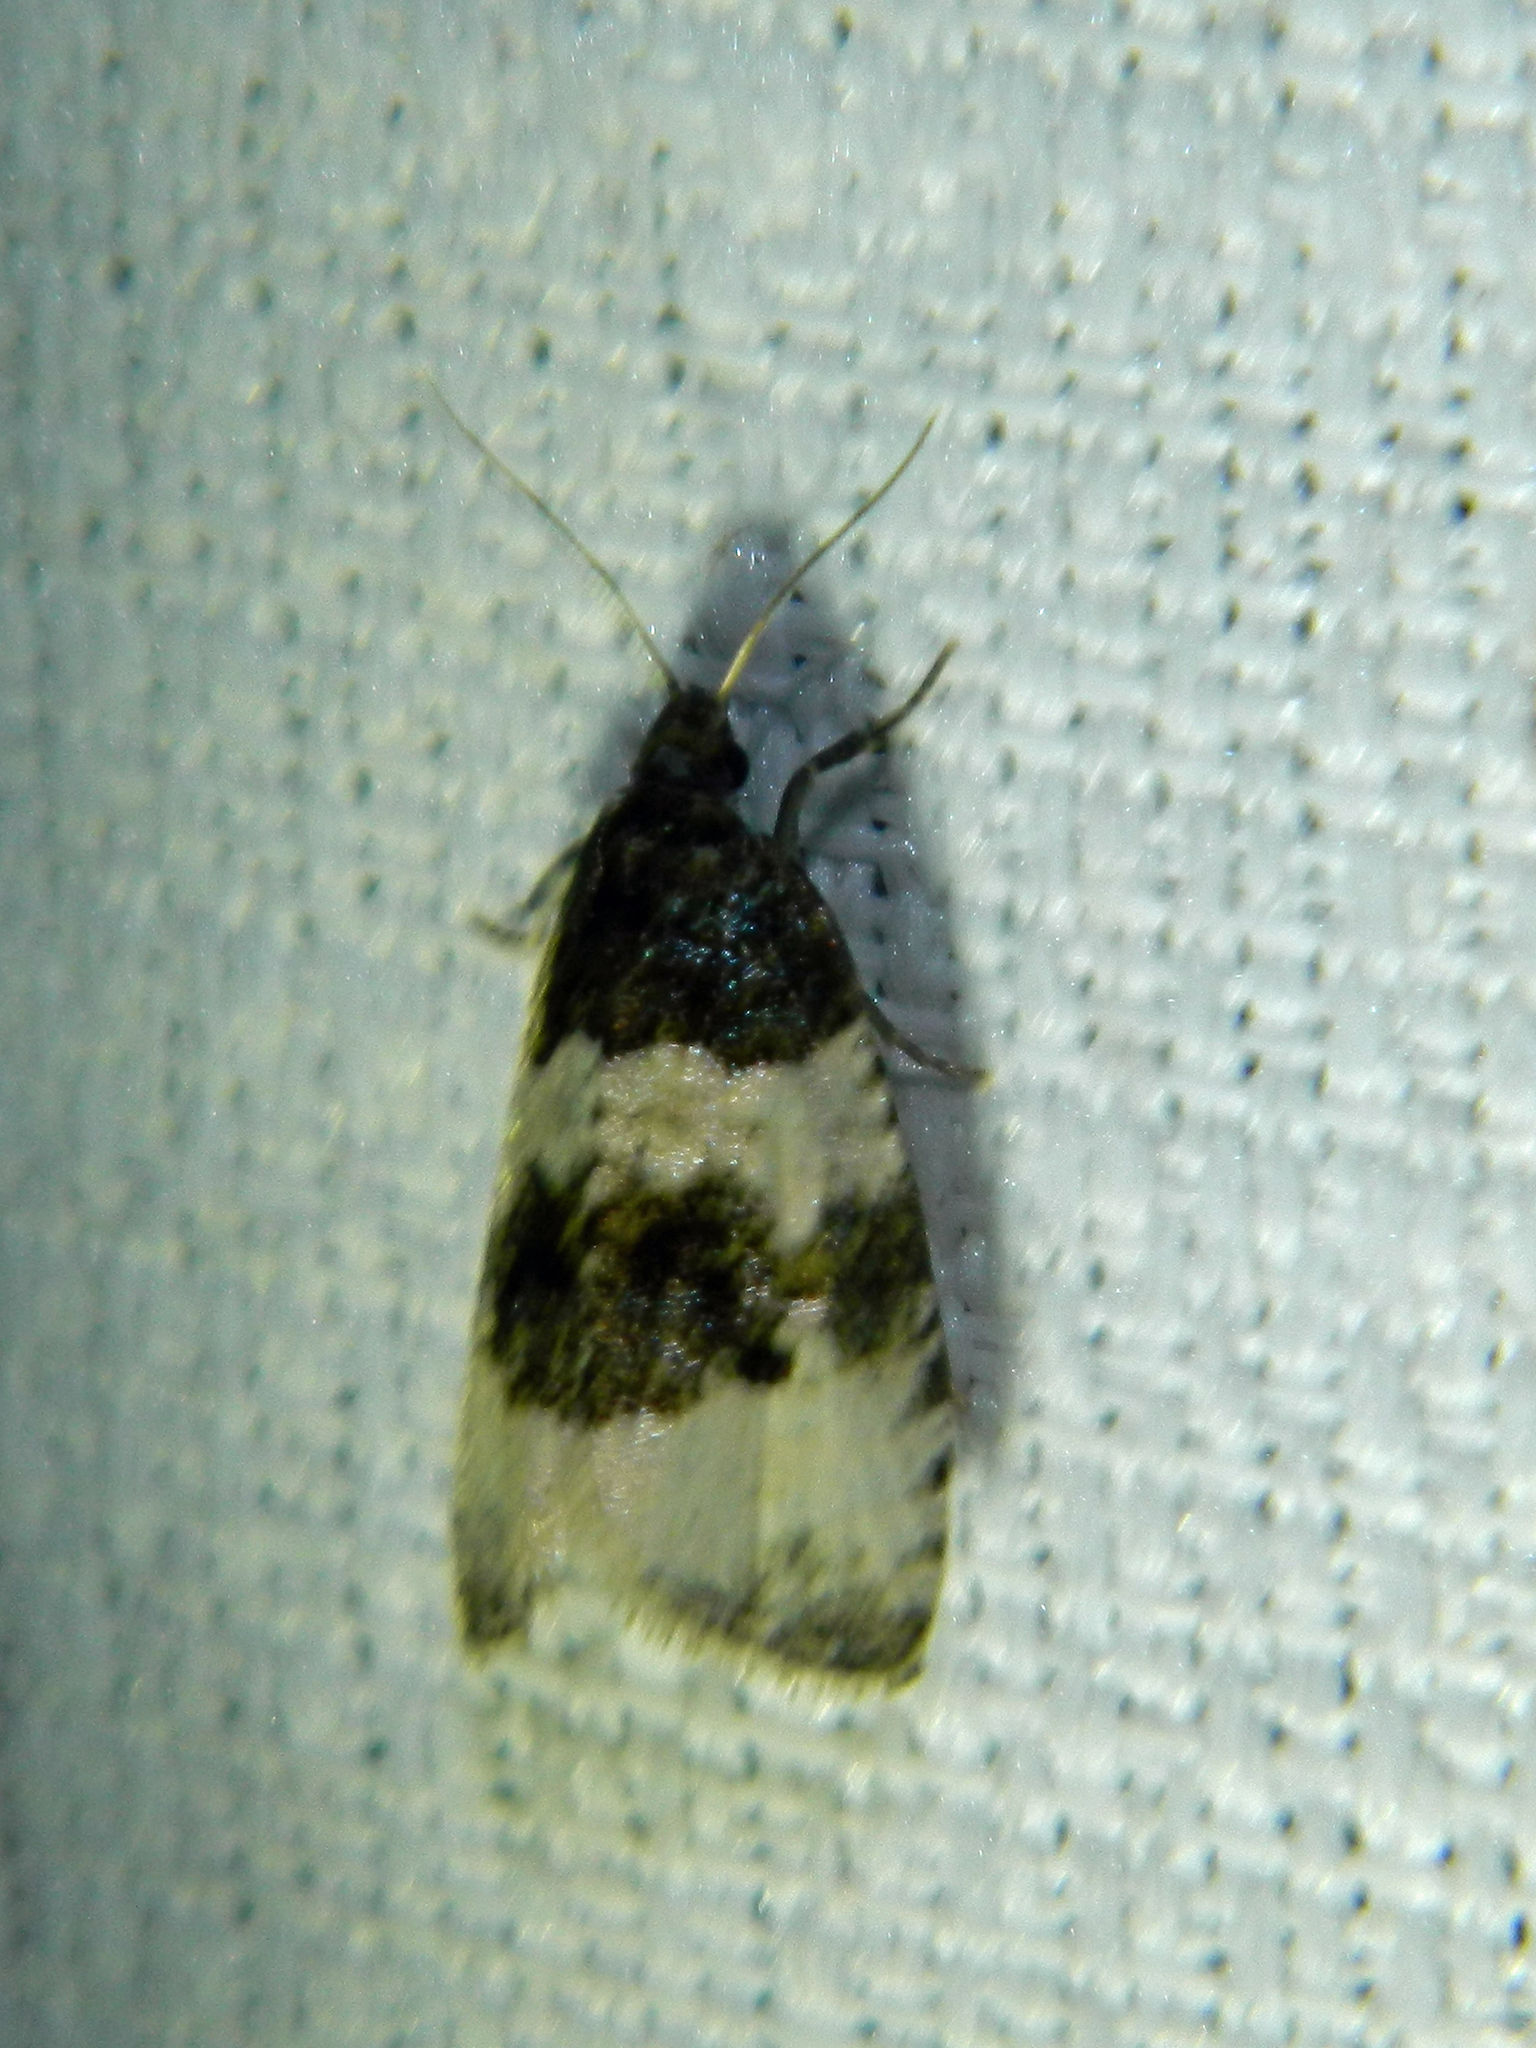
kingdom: Animalia
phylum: Arthropoda
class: Insecta
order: Lepidoptera
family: Tortricidae
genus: Olethreutes
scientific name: Olethreutes bipartitana
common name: Divided olethreutes moth
